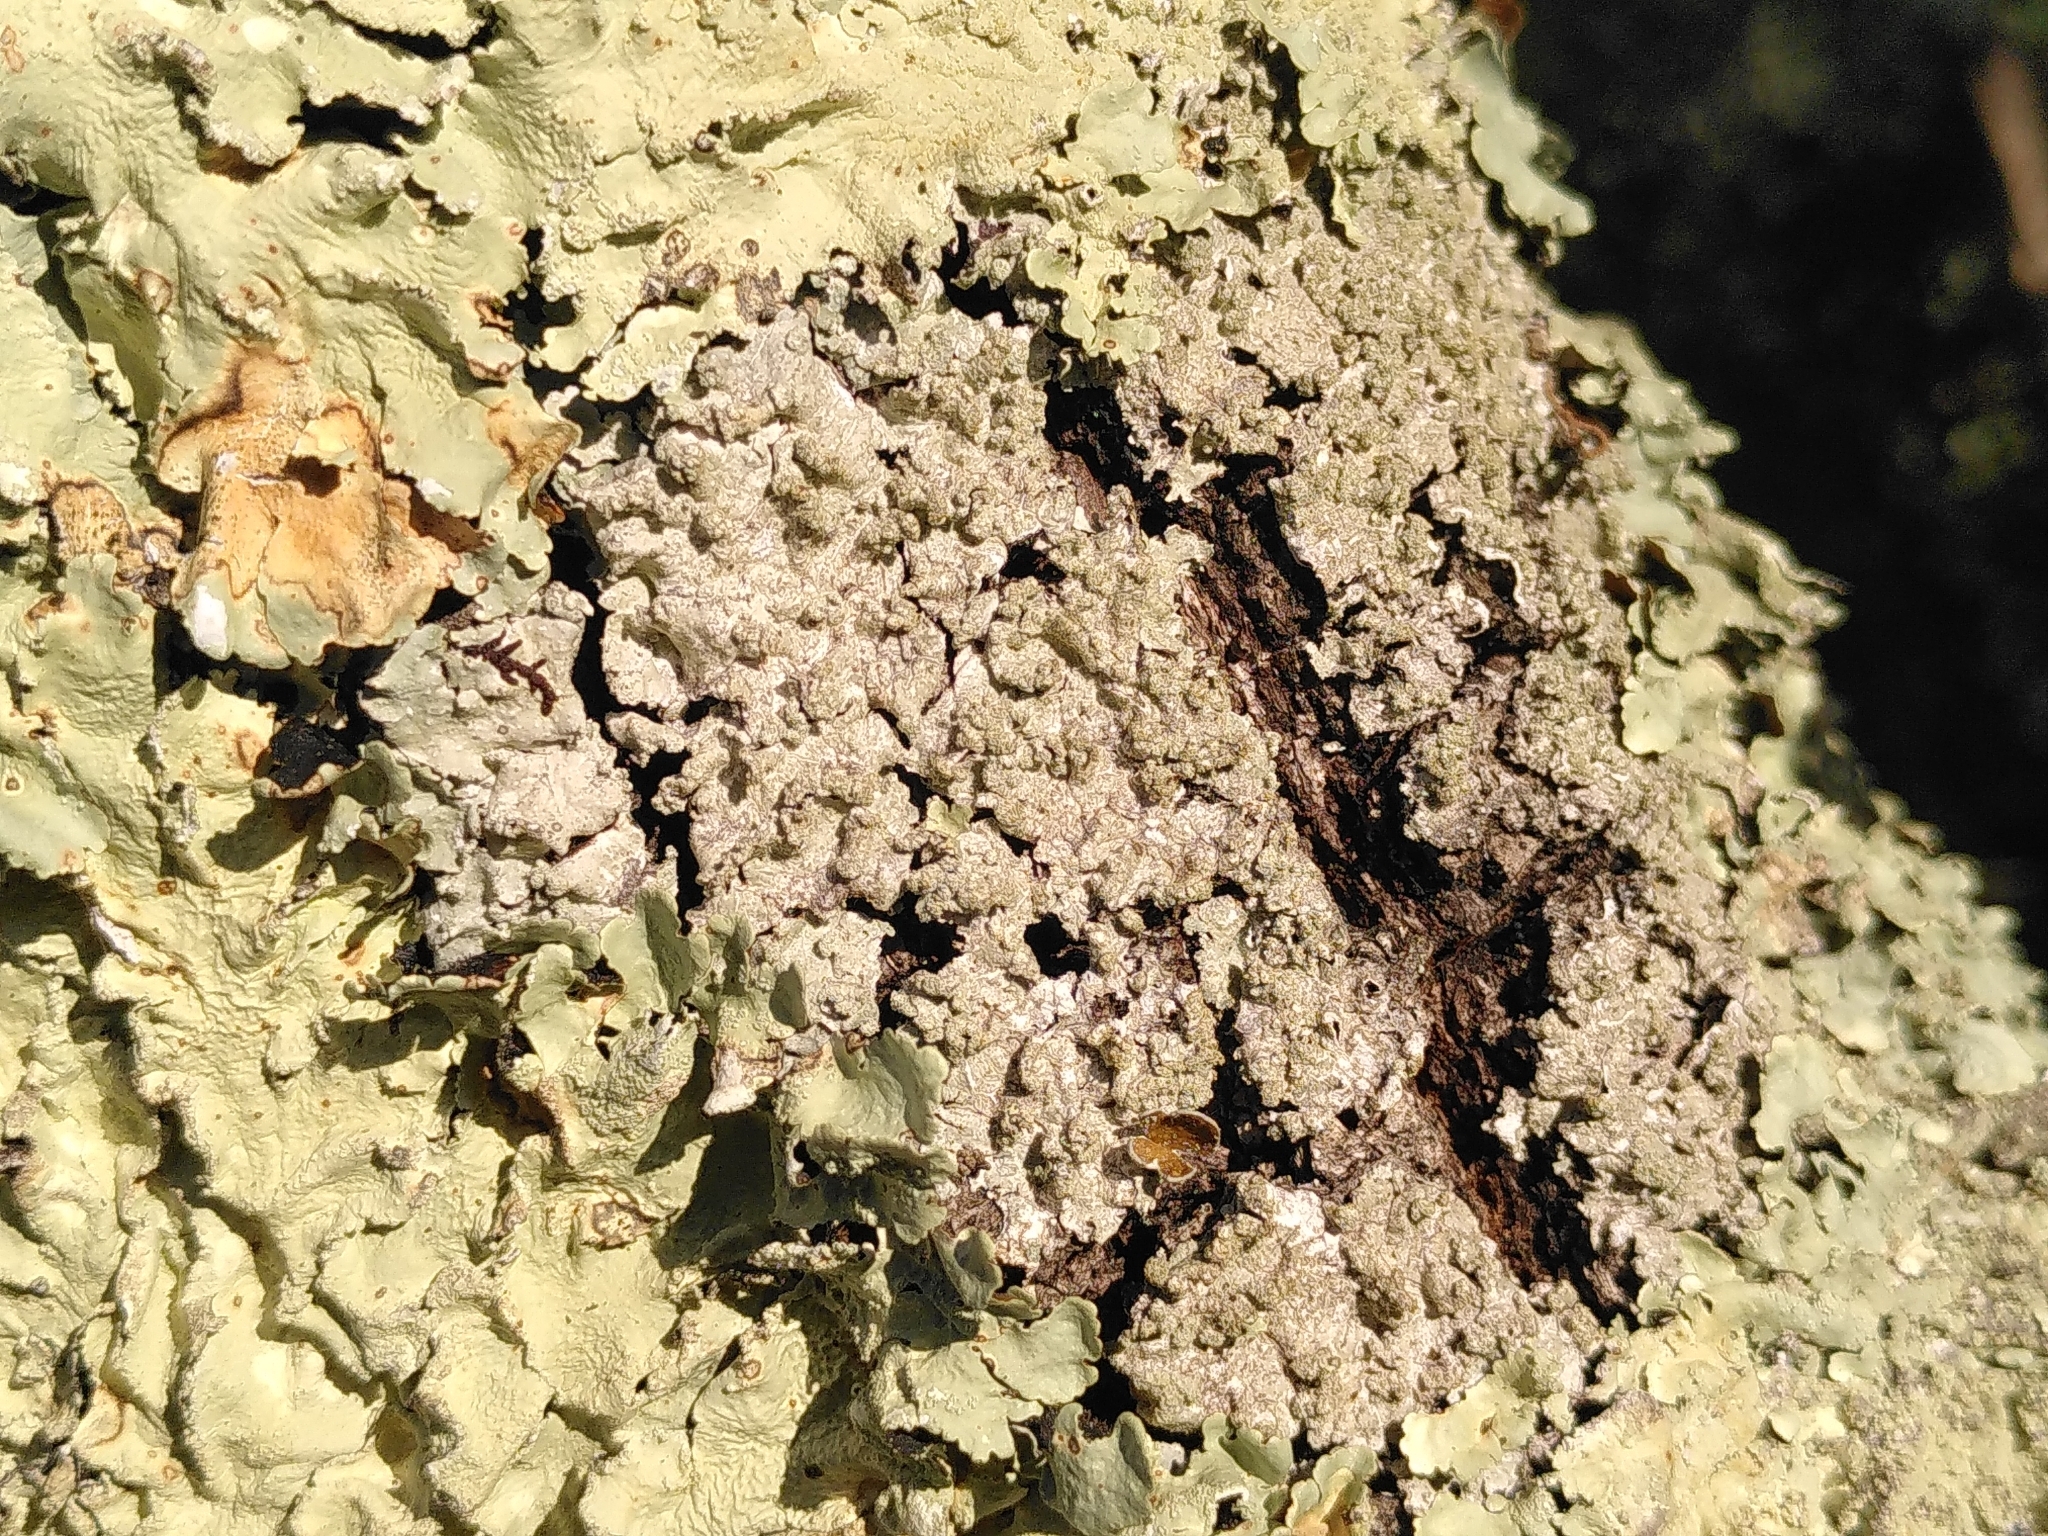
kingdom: Fungi
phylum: Ascomycota
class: Lecanoromycetes
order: Lecanorales
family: Parmeliaceae
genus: Flavoparmelia
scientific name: Flavoparmelia caperata
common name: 40-mile per hour lichen
